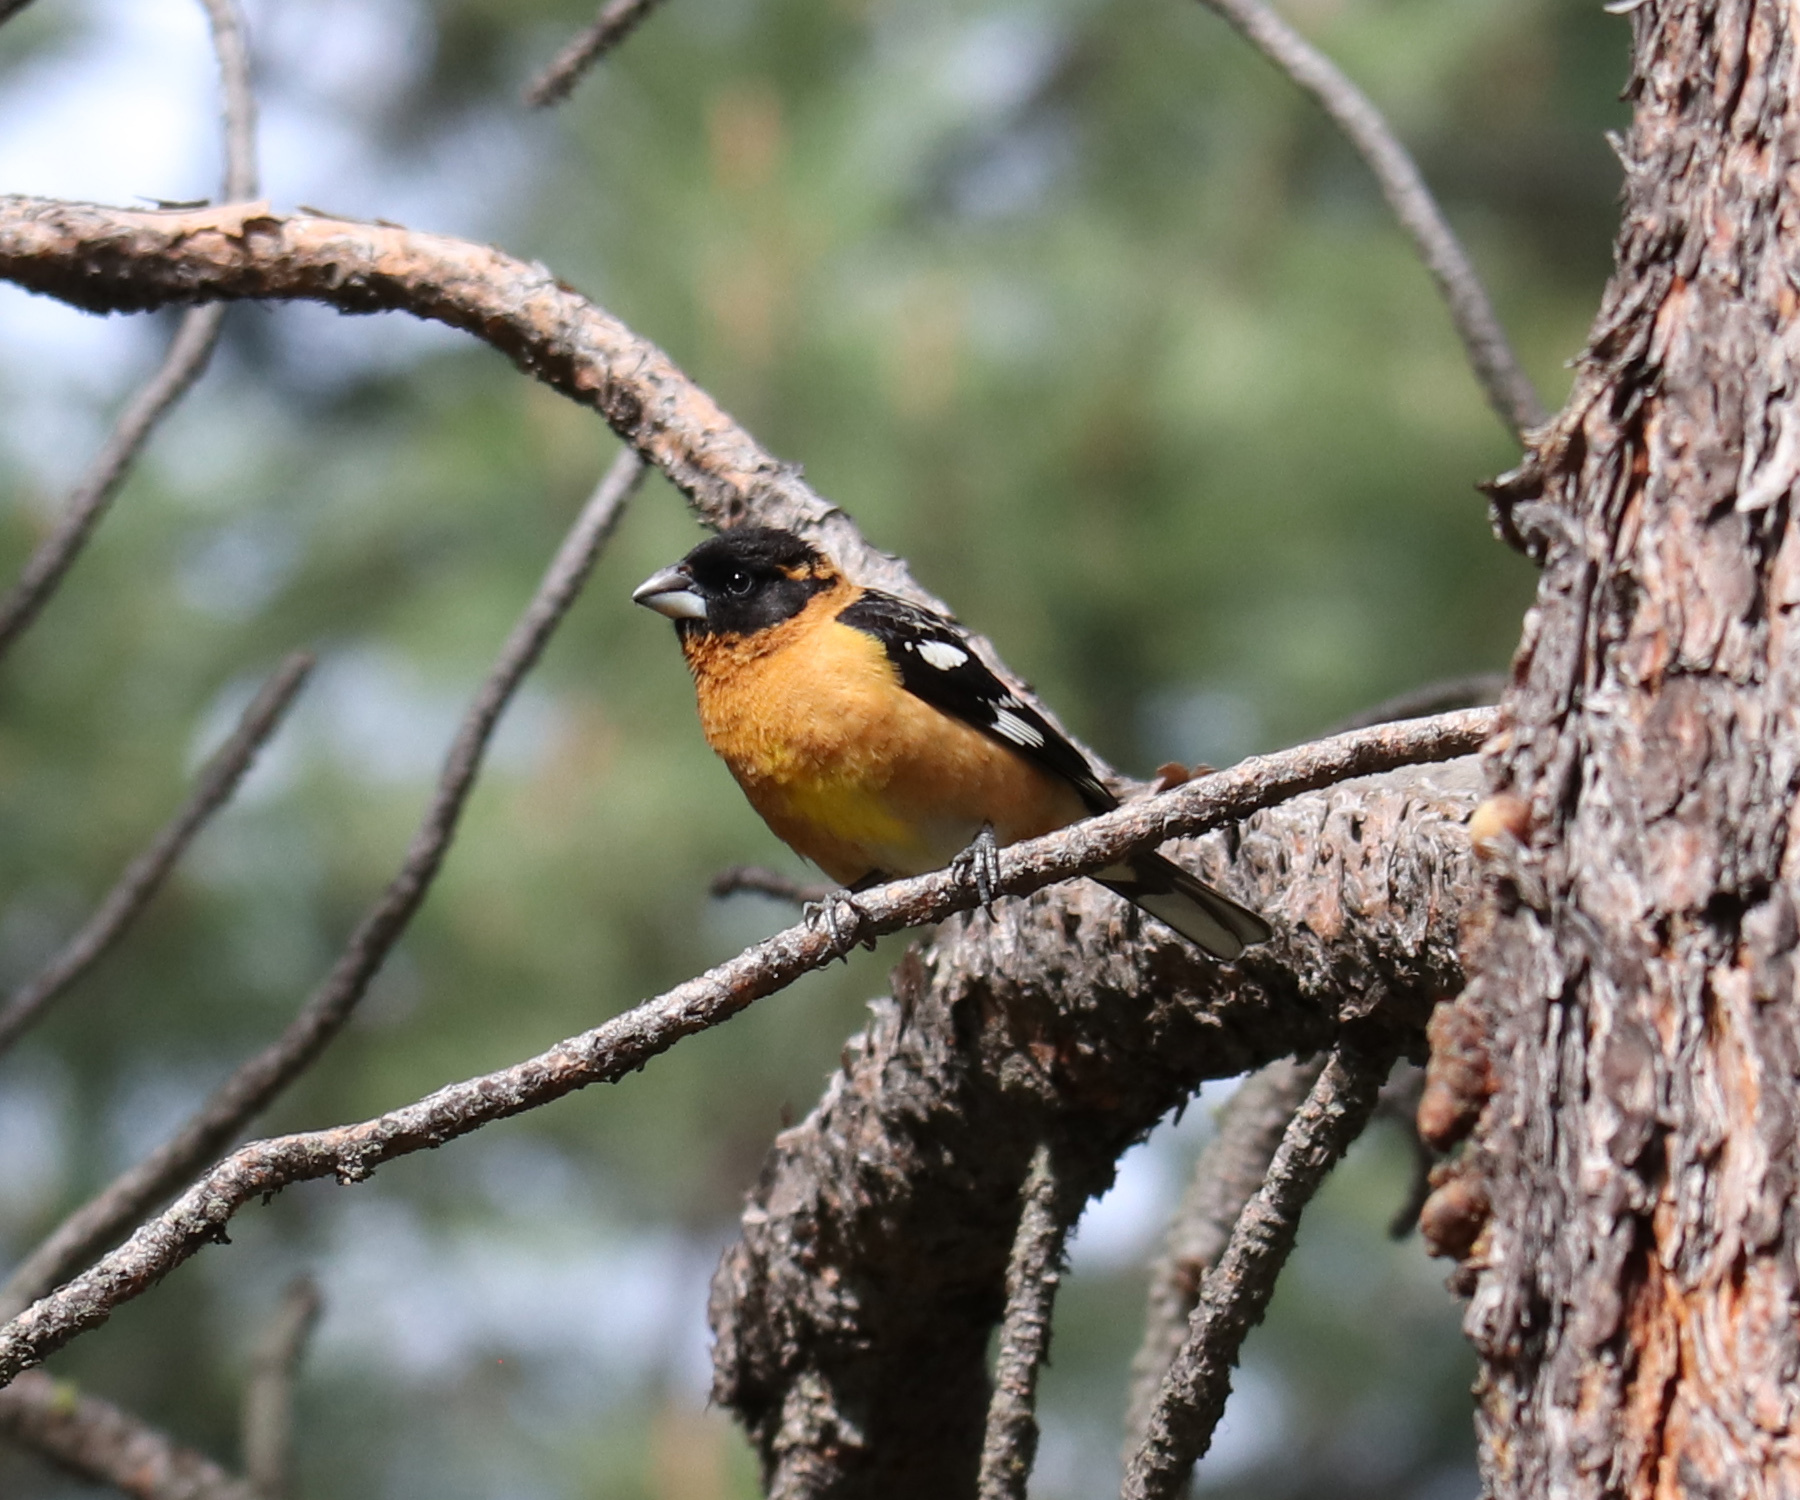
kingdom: Animalia
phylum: Chordata
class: Aves
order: Passeriformes
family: Cardinalidae
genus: Pheucticus
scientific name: Pheucticus melanocephalus
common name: Black-headed grosbeak
